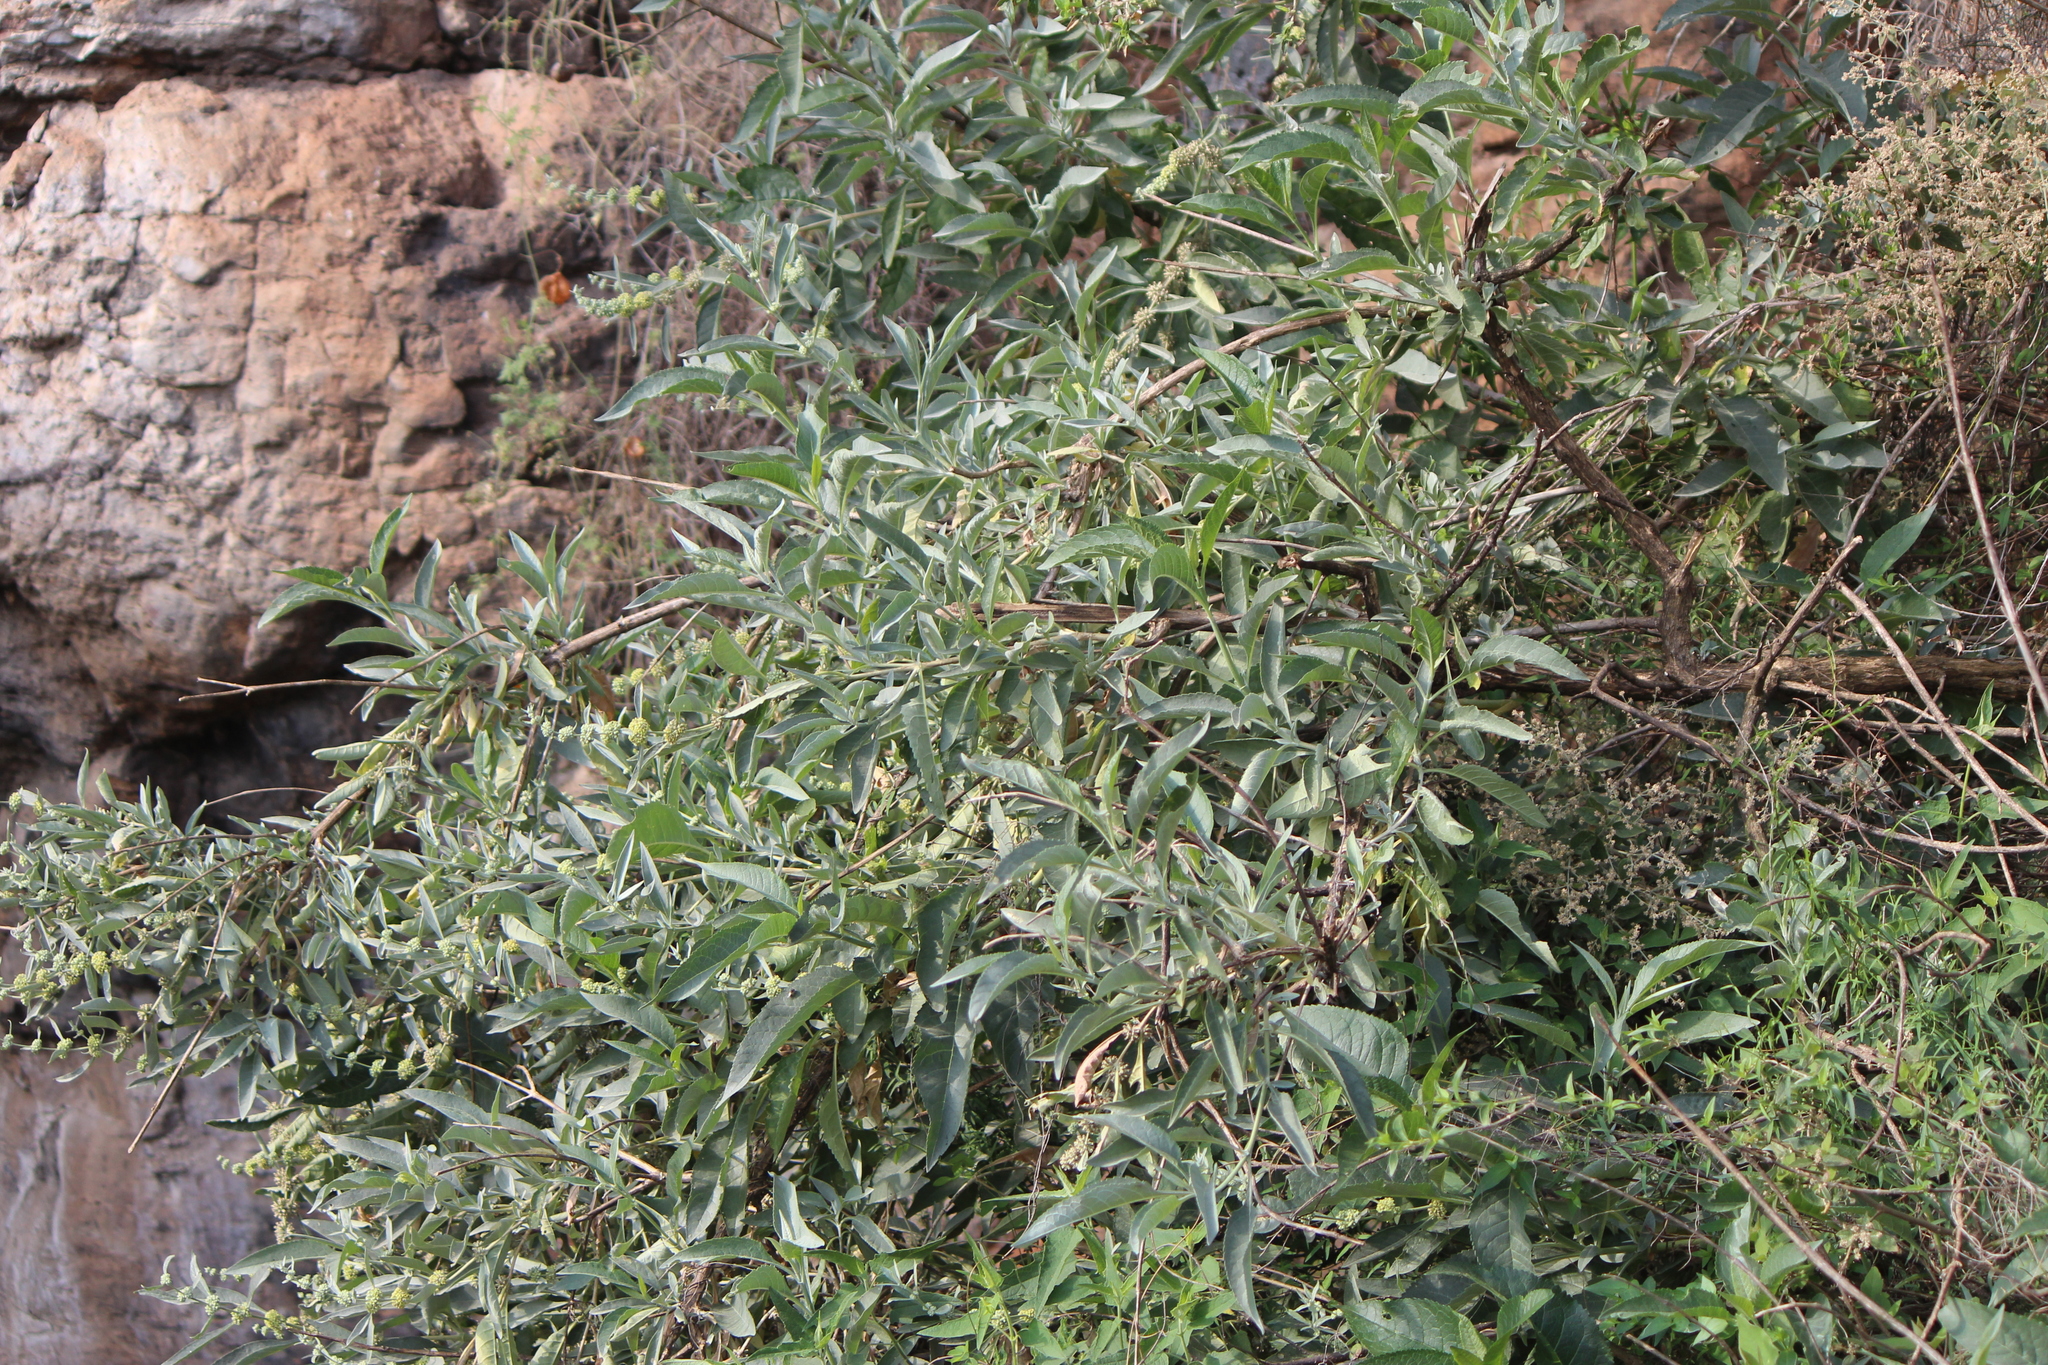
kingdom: Plantae
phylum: Tracheophyta
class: Magnoliopsida
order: Lamiales
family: Scrophulariaceae
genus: Buddleja
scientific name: Buddleja sessiliflora
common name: Rio grande butterfly-bush
